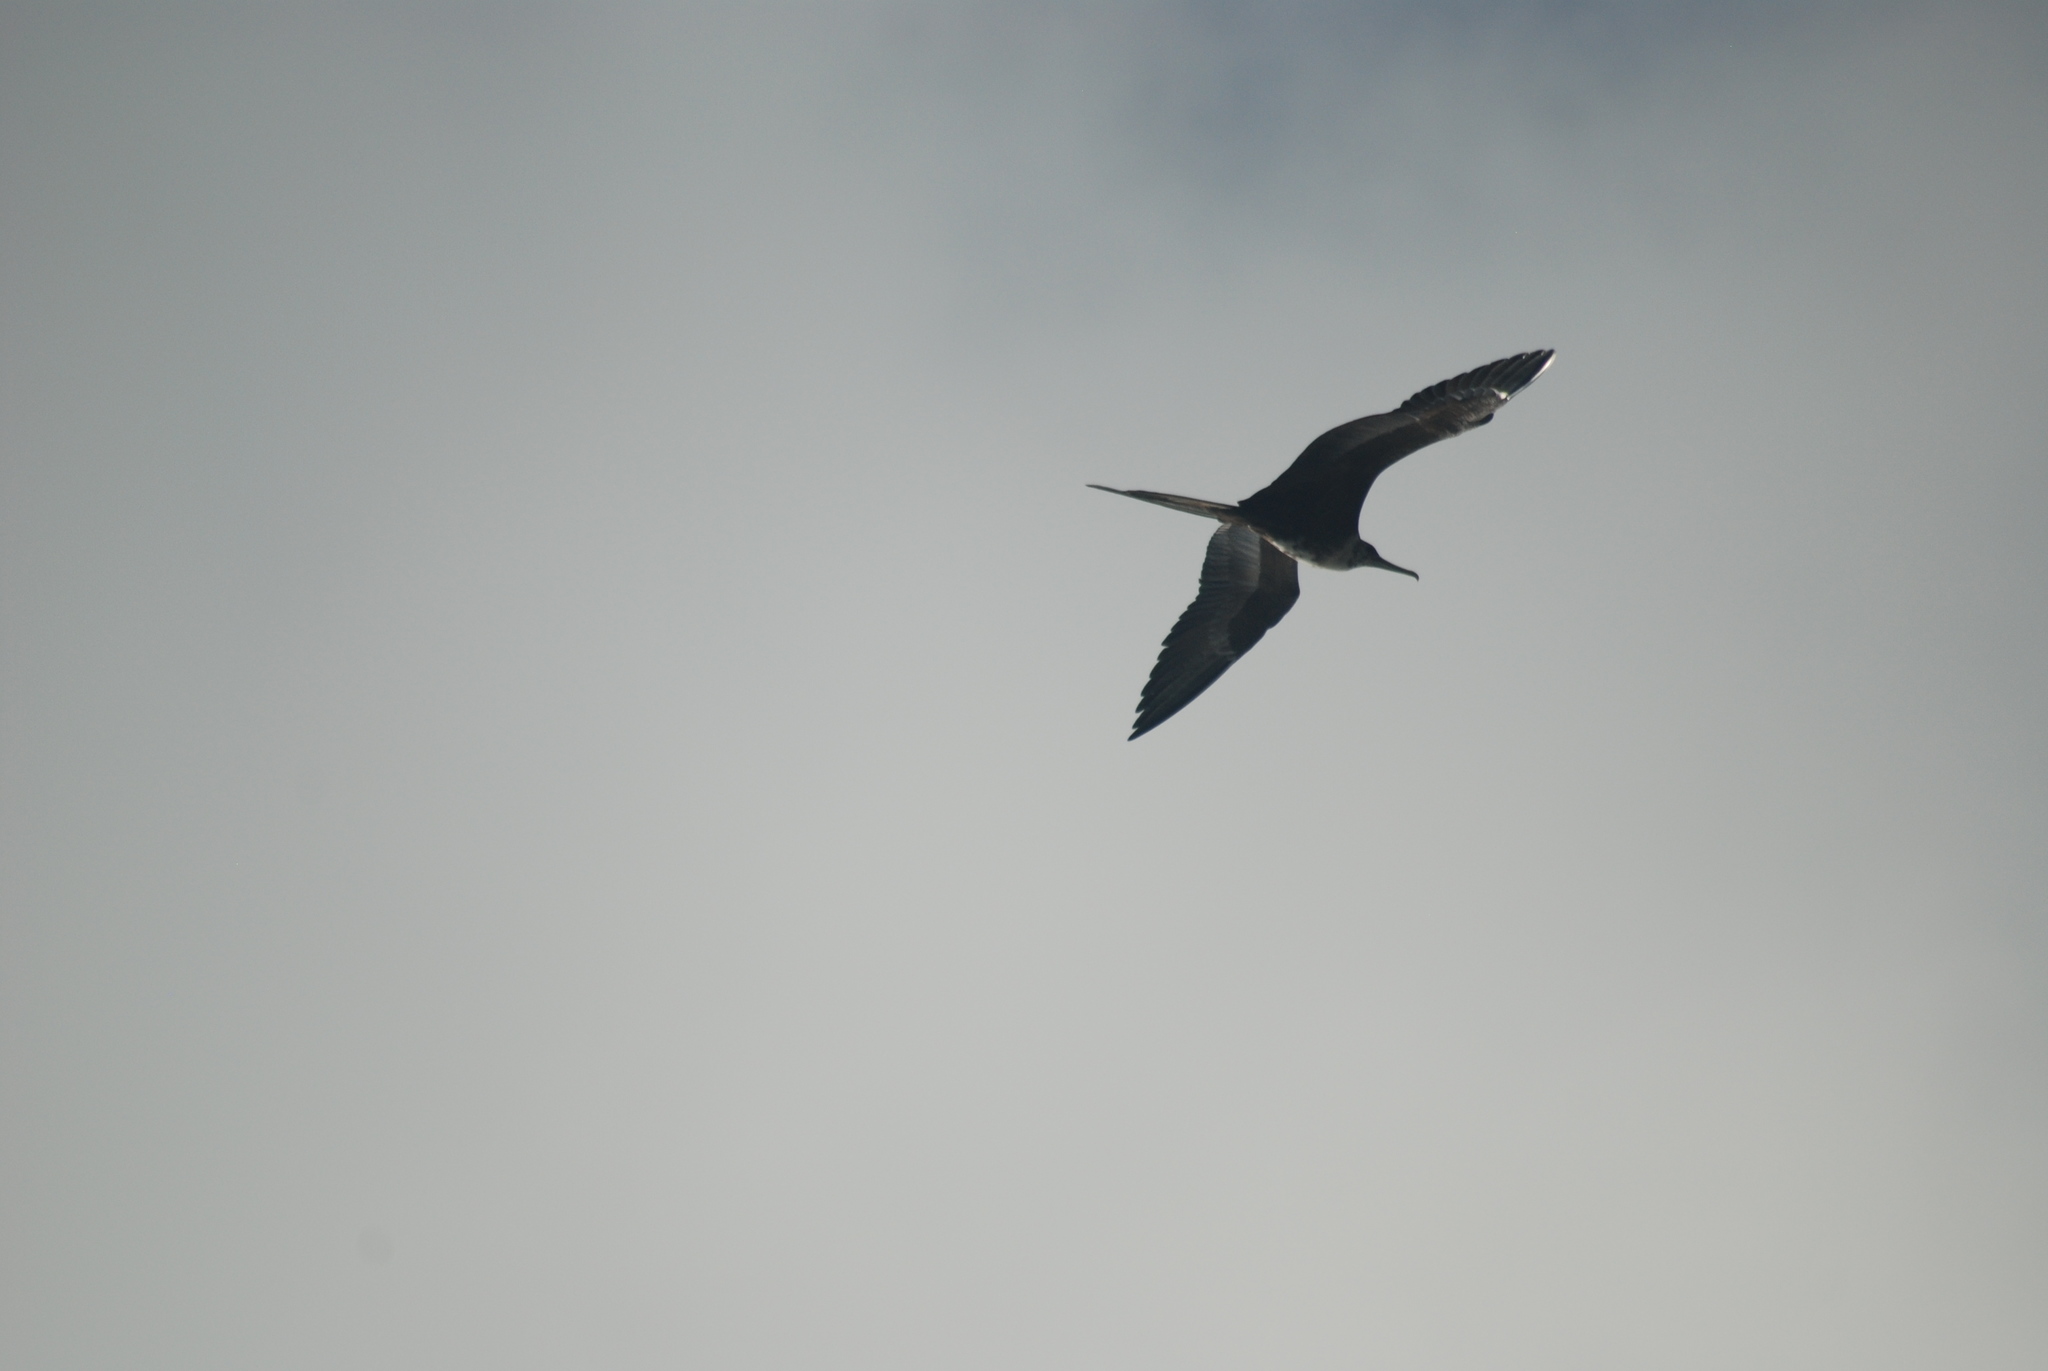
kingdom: Animalia
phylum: Chordata
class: Aves
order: Suliformes
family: Fregatidae
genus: Fregata
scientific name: Fregata magnificens
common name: Magnificent frigatebird
